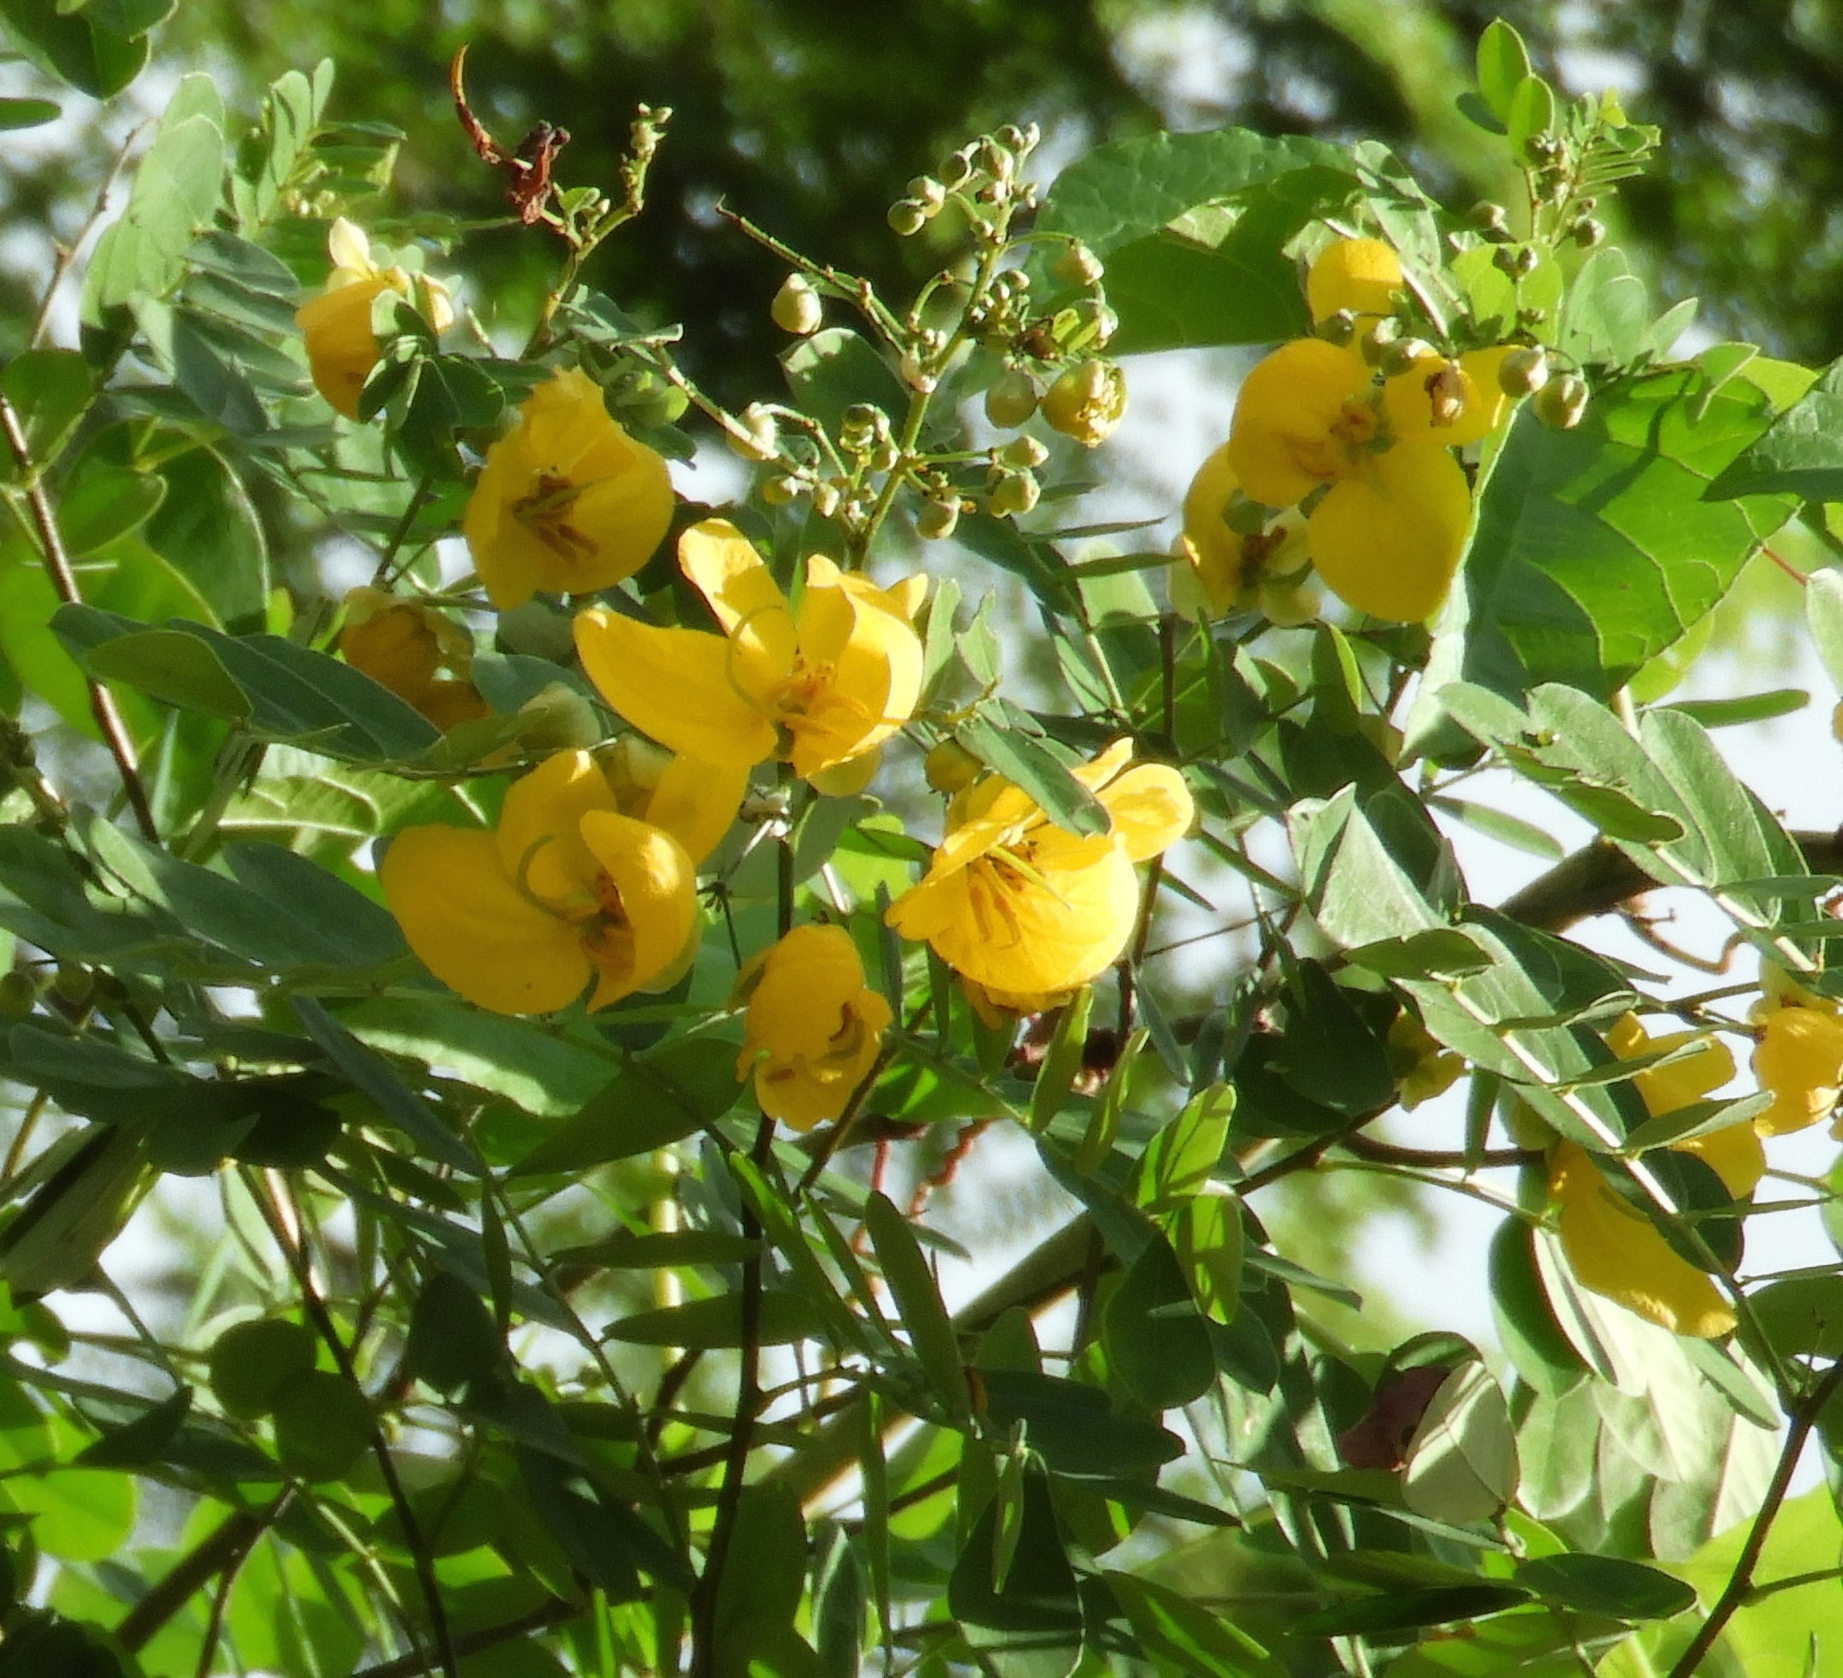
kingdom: Plantae
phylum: Tracheophyta
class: Magnoliopsida
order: Fabales
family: Fabaceae
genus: Senna
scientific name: Senna pallida
